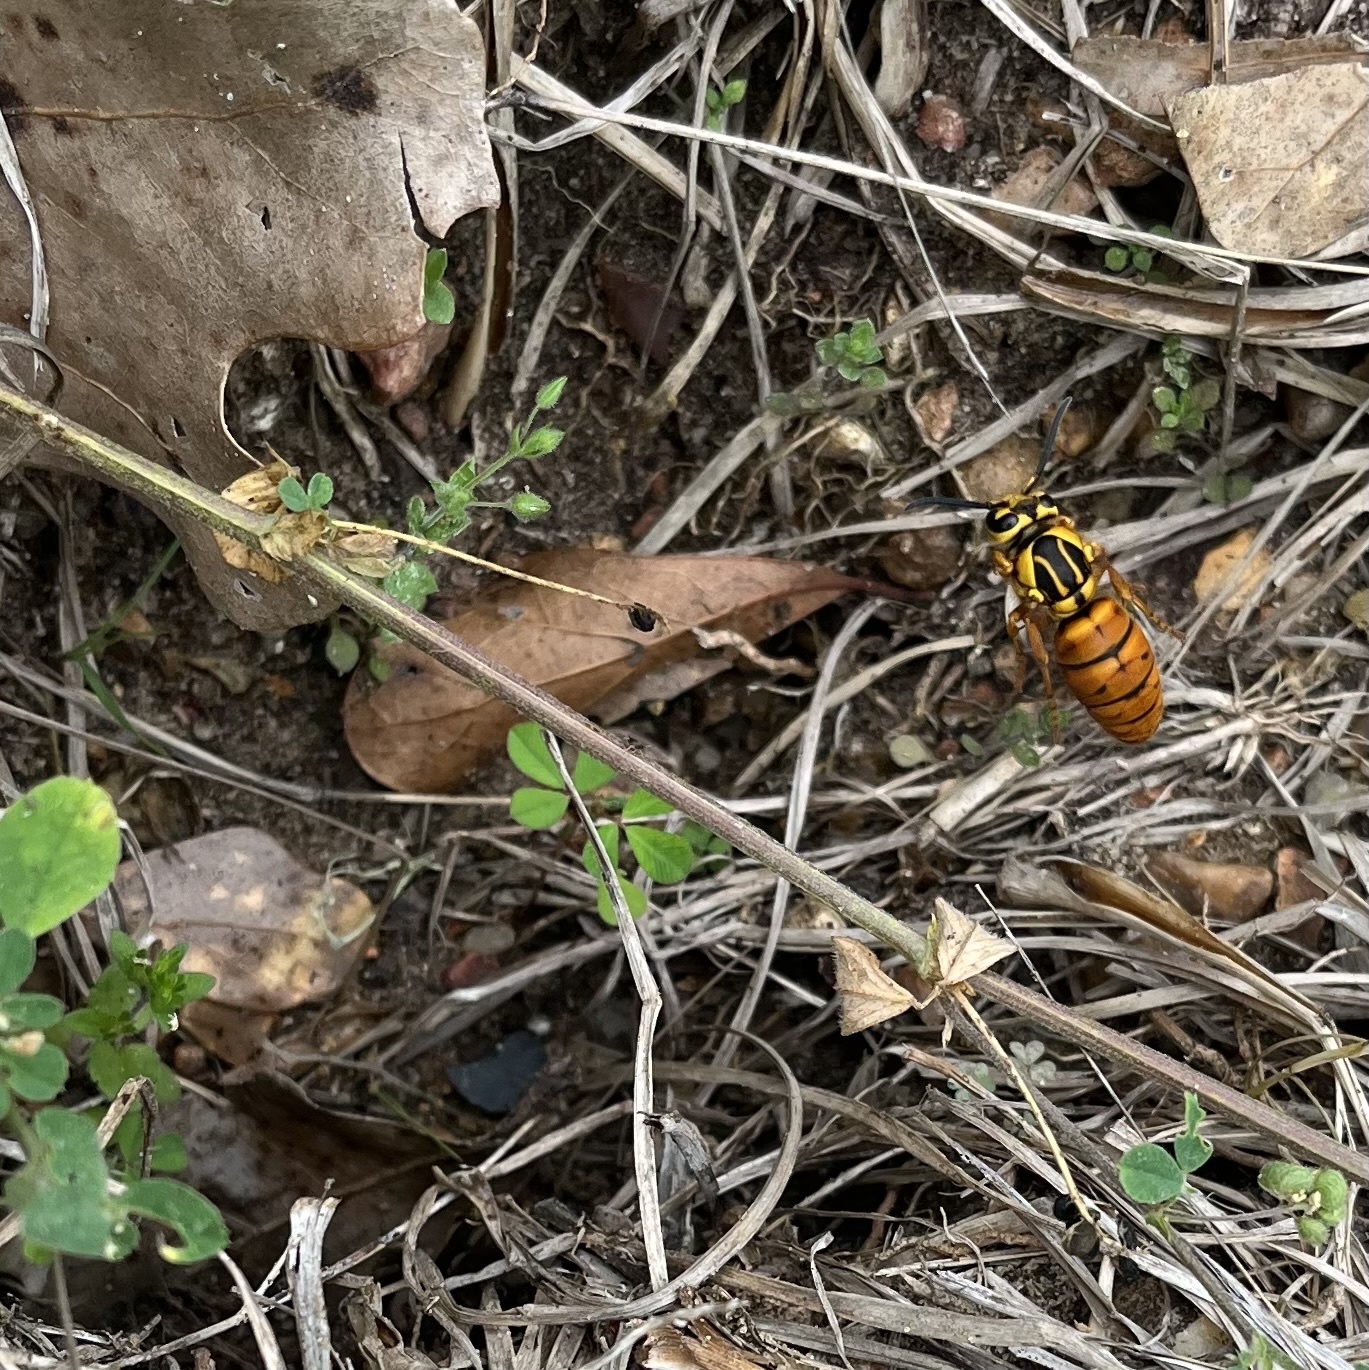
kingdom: Animalia
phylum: Arthropoda
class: Insecta
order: Hymenoptera
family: Vespidae
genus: Vespula
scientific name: Vespula squamosa
